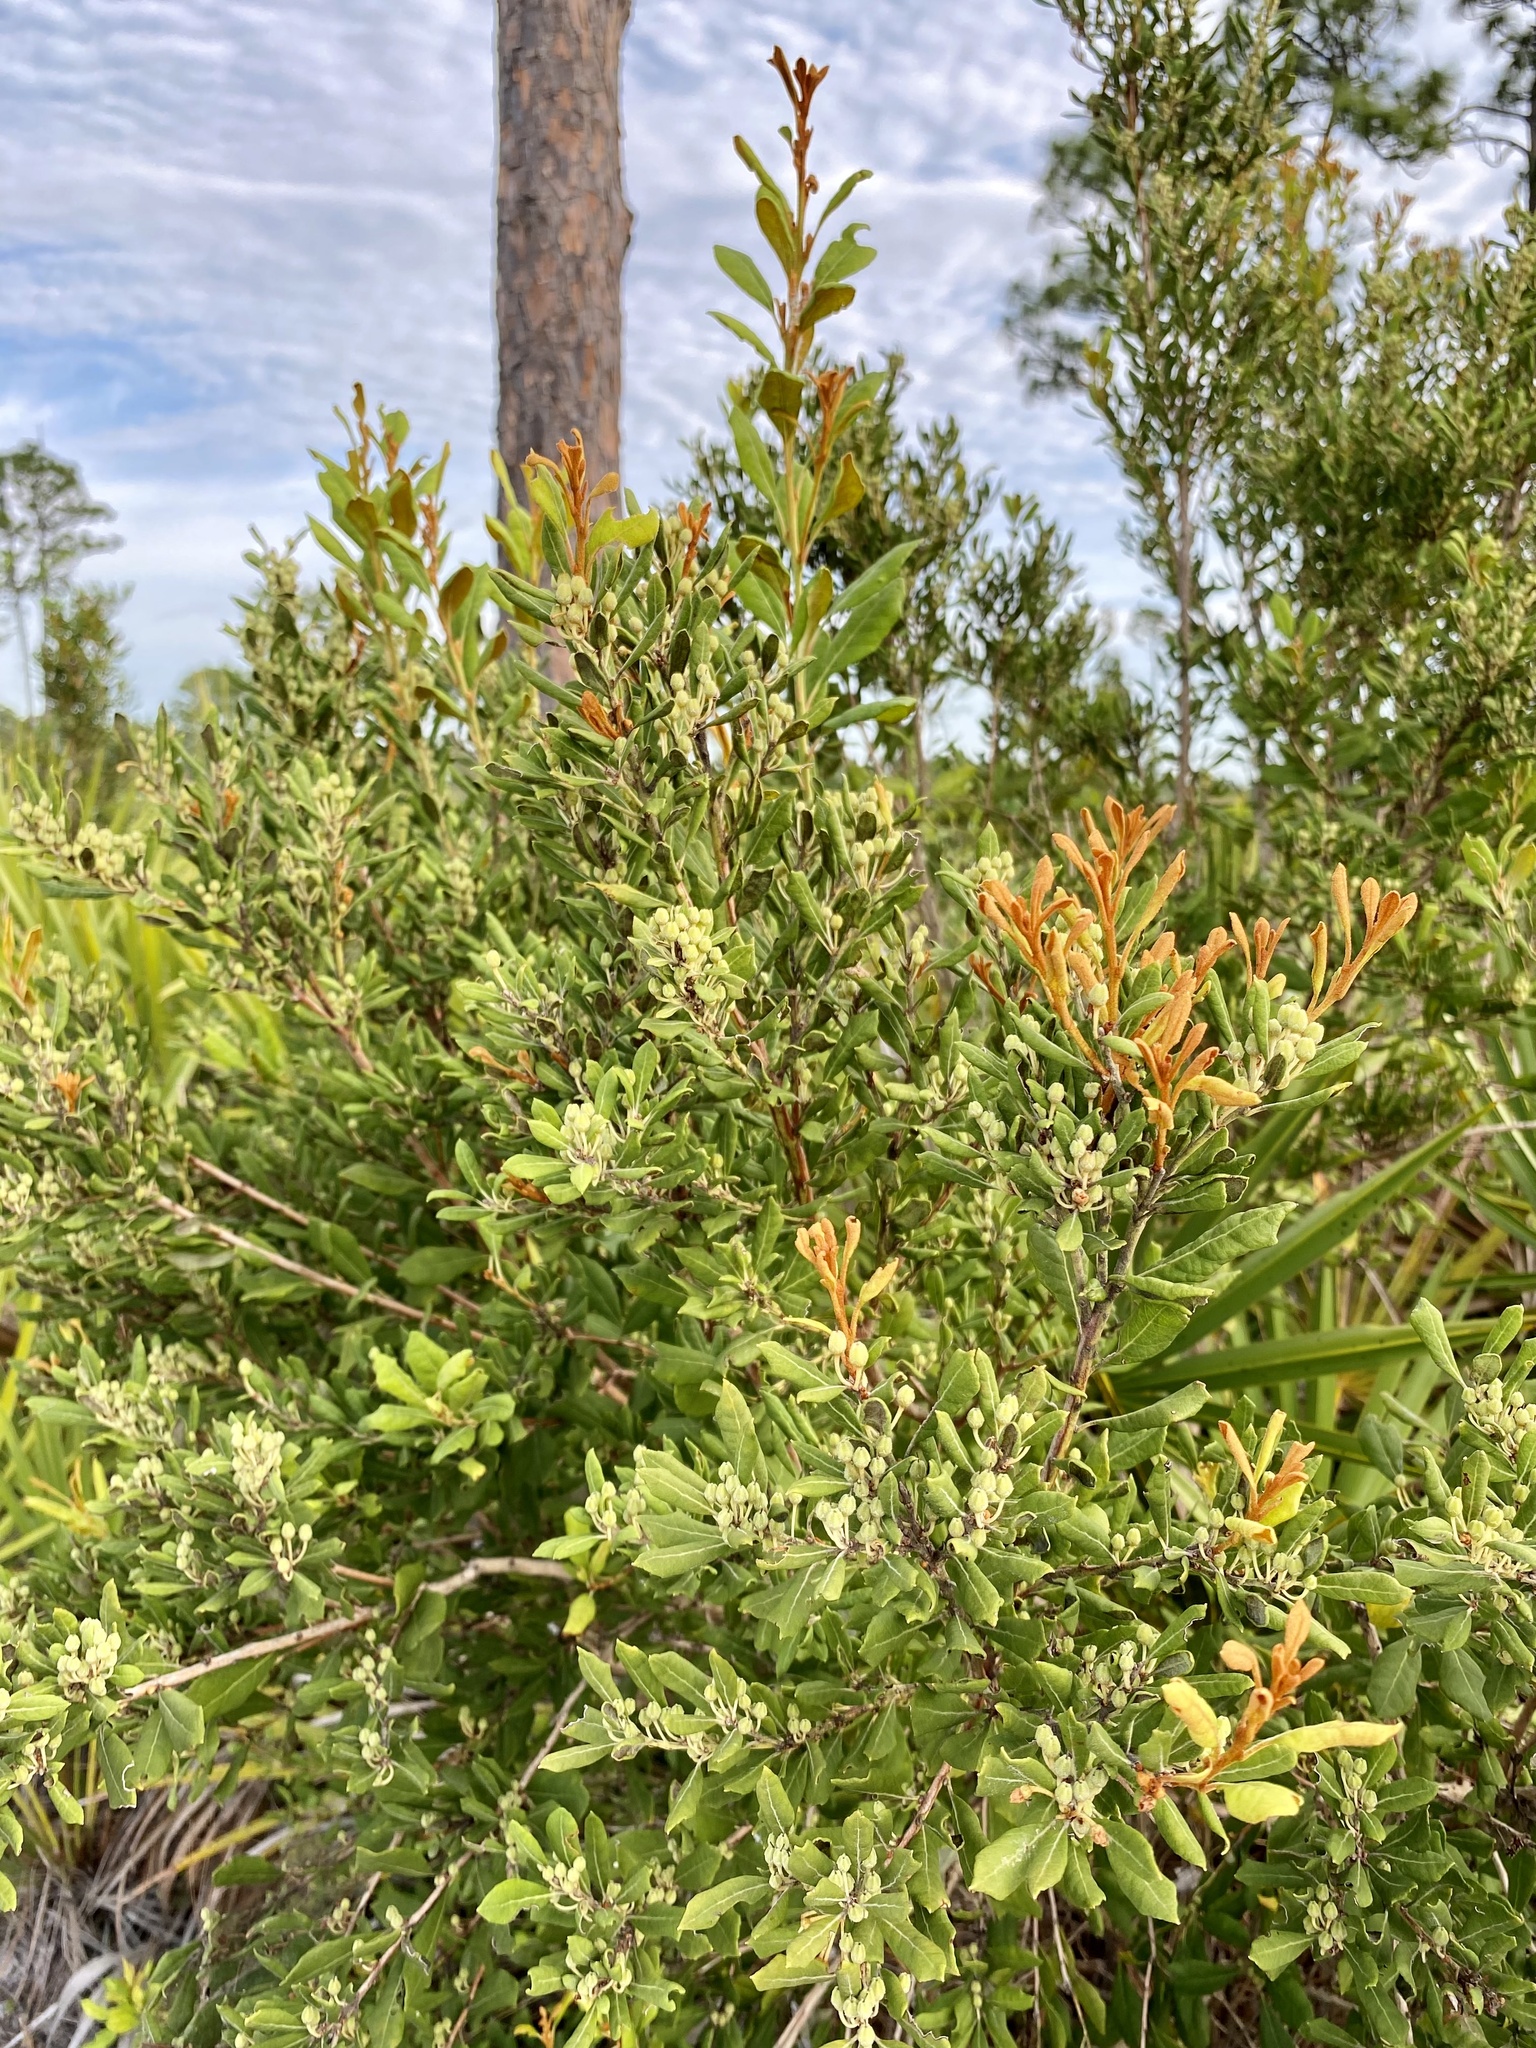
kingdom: Plantae
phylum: Tracheophyta
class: Magnoliopsida
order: Ericales
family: Ericaceae
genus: Lyonia
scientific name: Lyonia ferruginea
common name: Rusty lyonia
